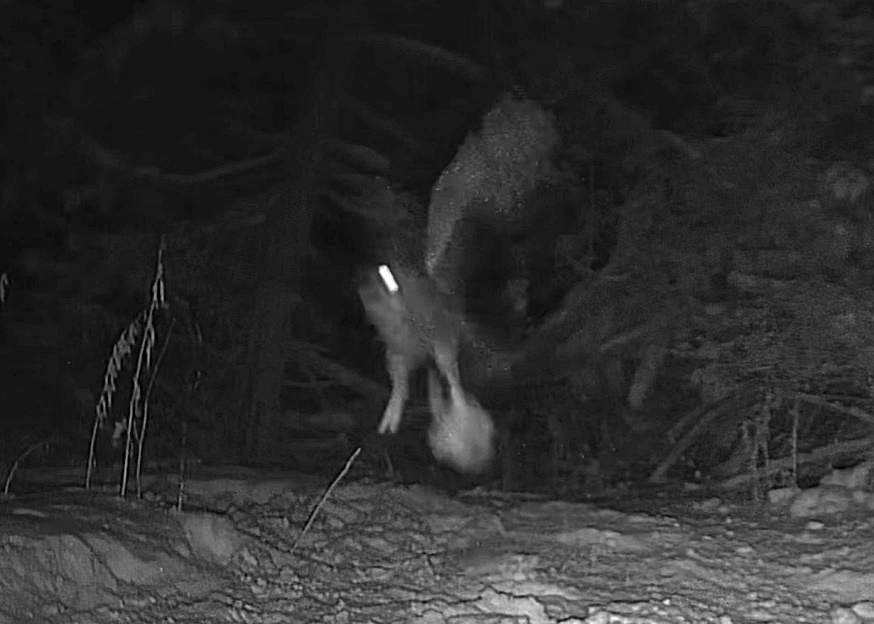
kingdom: Animalia
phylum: Chordata
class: Aves
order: Strigiformes
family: Strigidae
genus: Bubo
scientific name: Bubo virginianus
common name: Great horned owl
